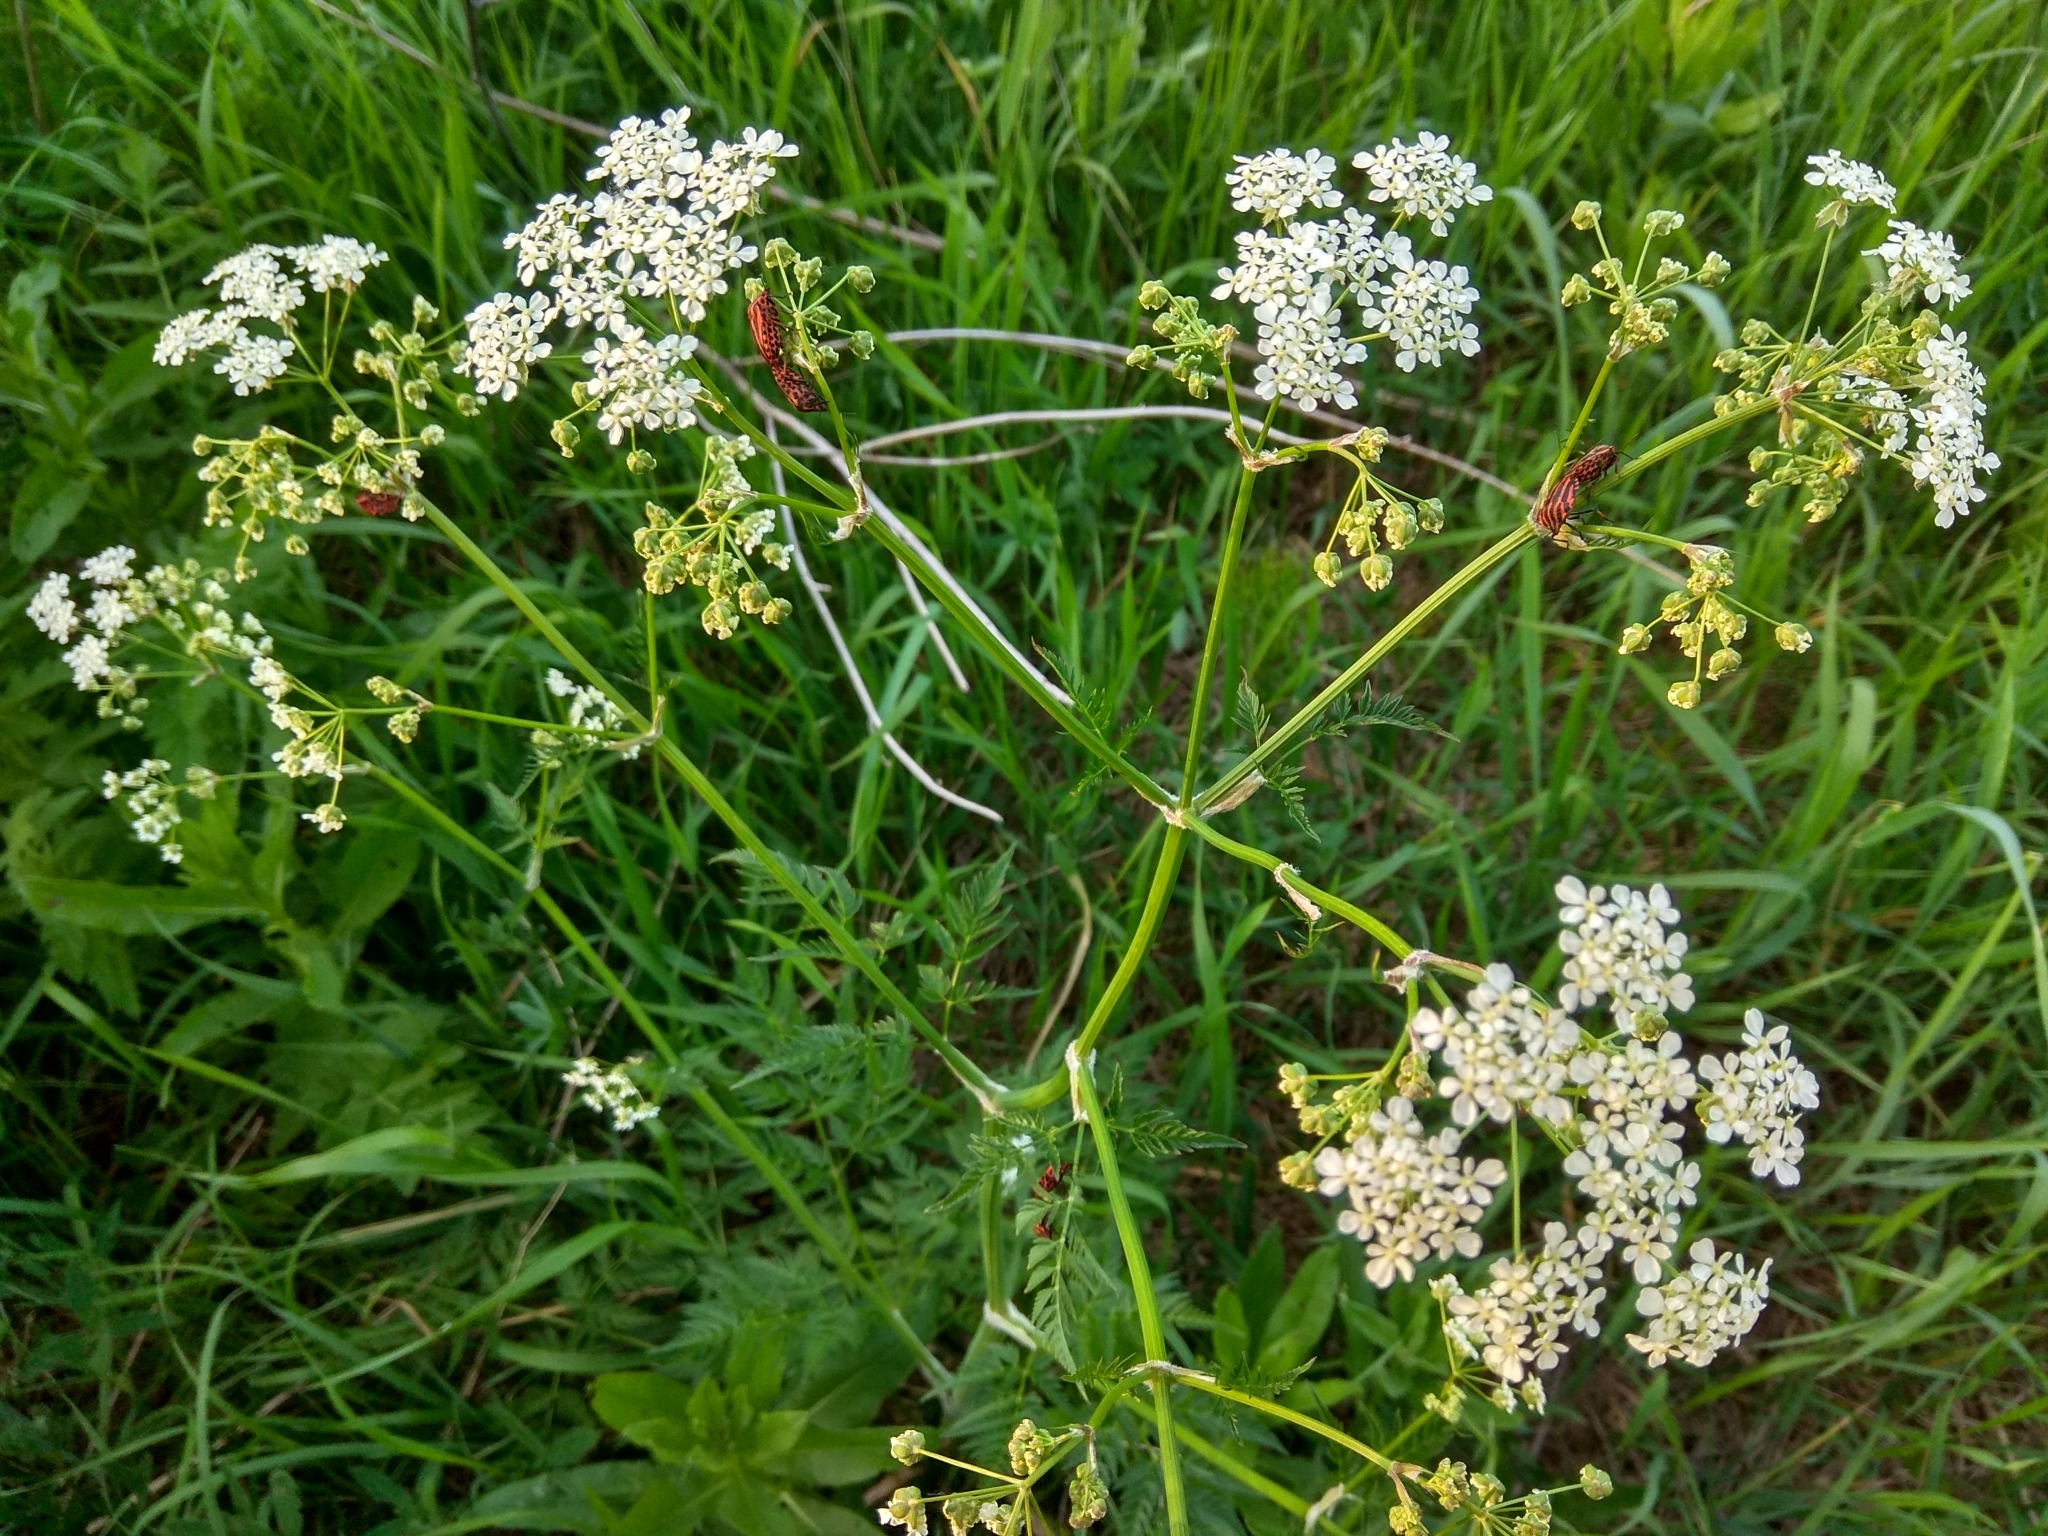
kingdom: Animalia
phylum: Arthropoda
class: Insecta
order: Hemiptera
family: Pentatomidae
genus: Graphosoma
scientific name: Graphosoma italicum
